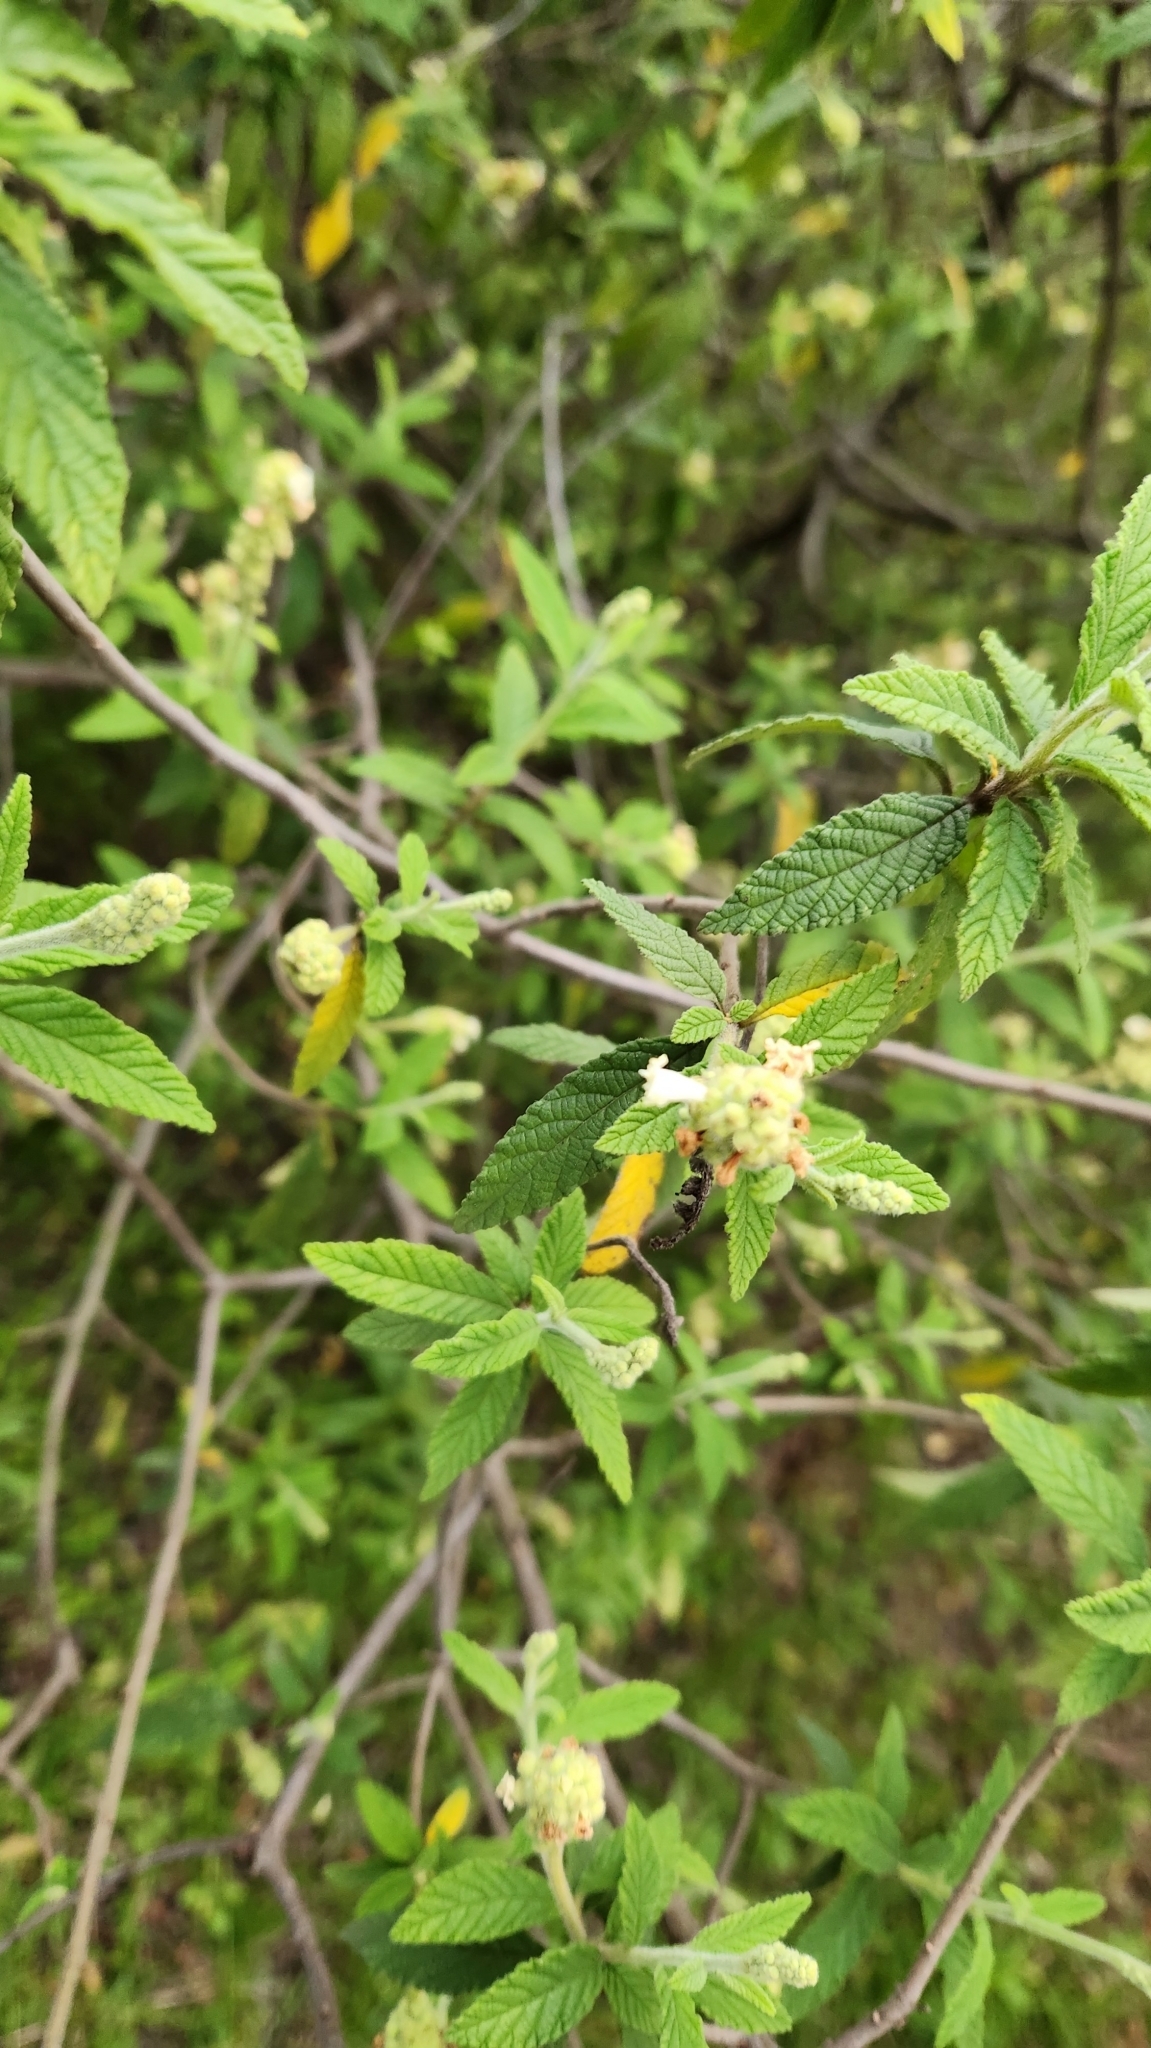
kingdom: Plantae
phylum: Tracheophyta
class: Magnoliopsida
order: Boraginales
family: Cordiaceae
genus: Varronia
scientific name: Varronia curassavica
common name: Black sage
